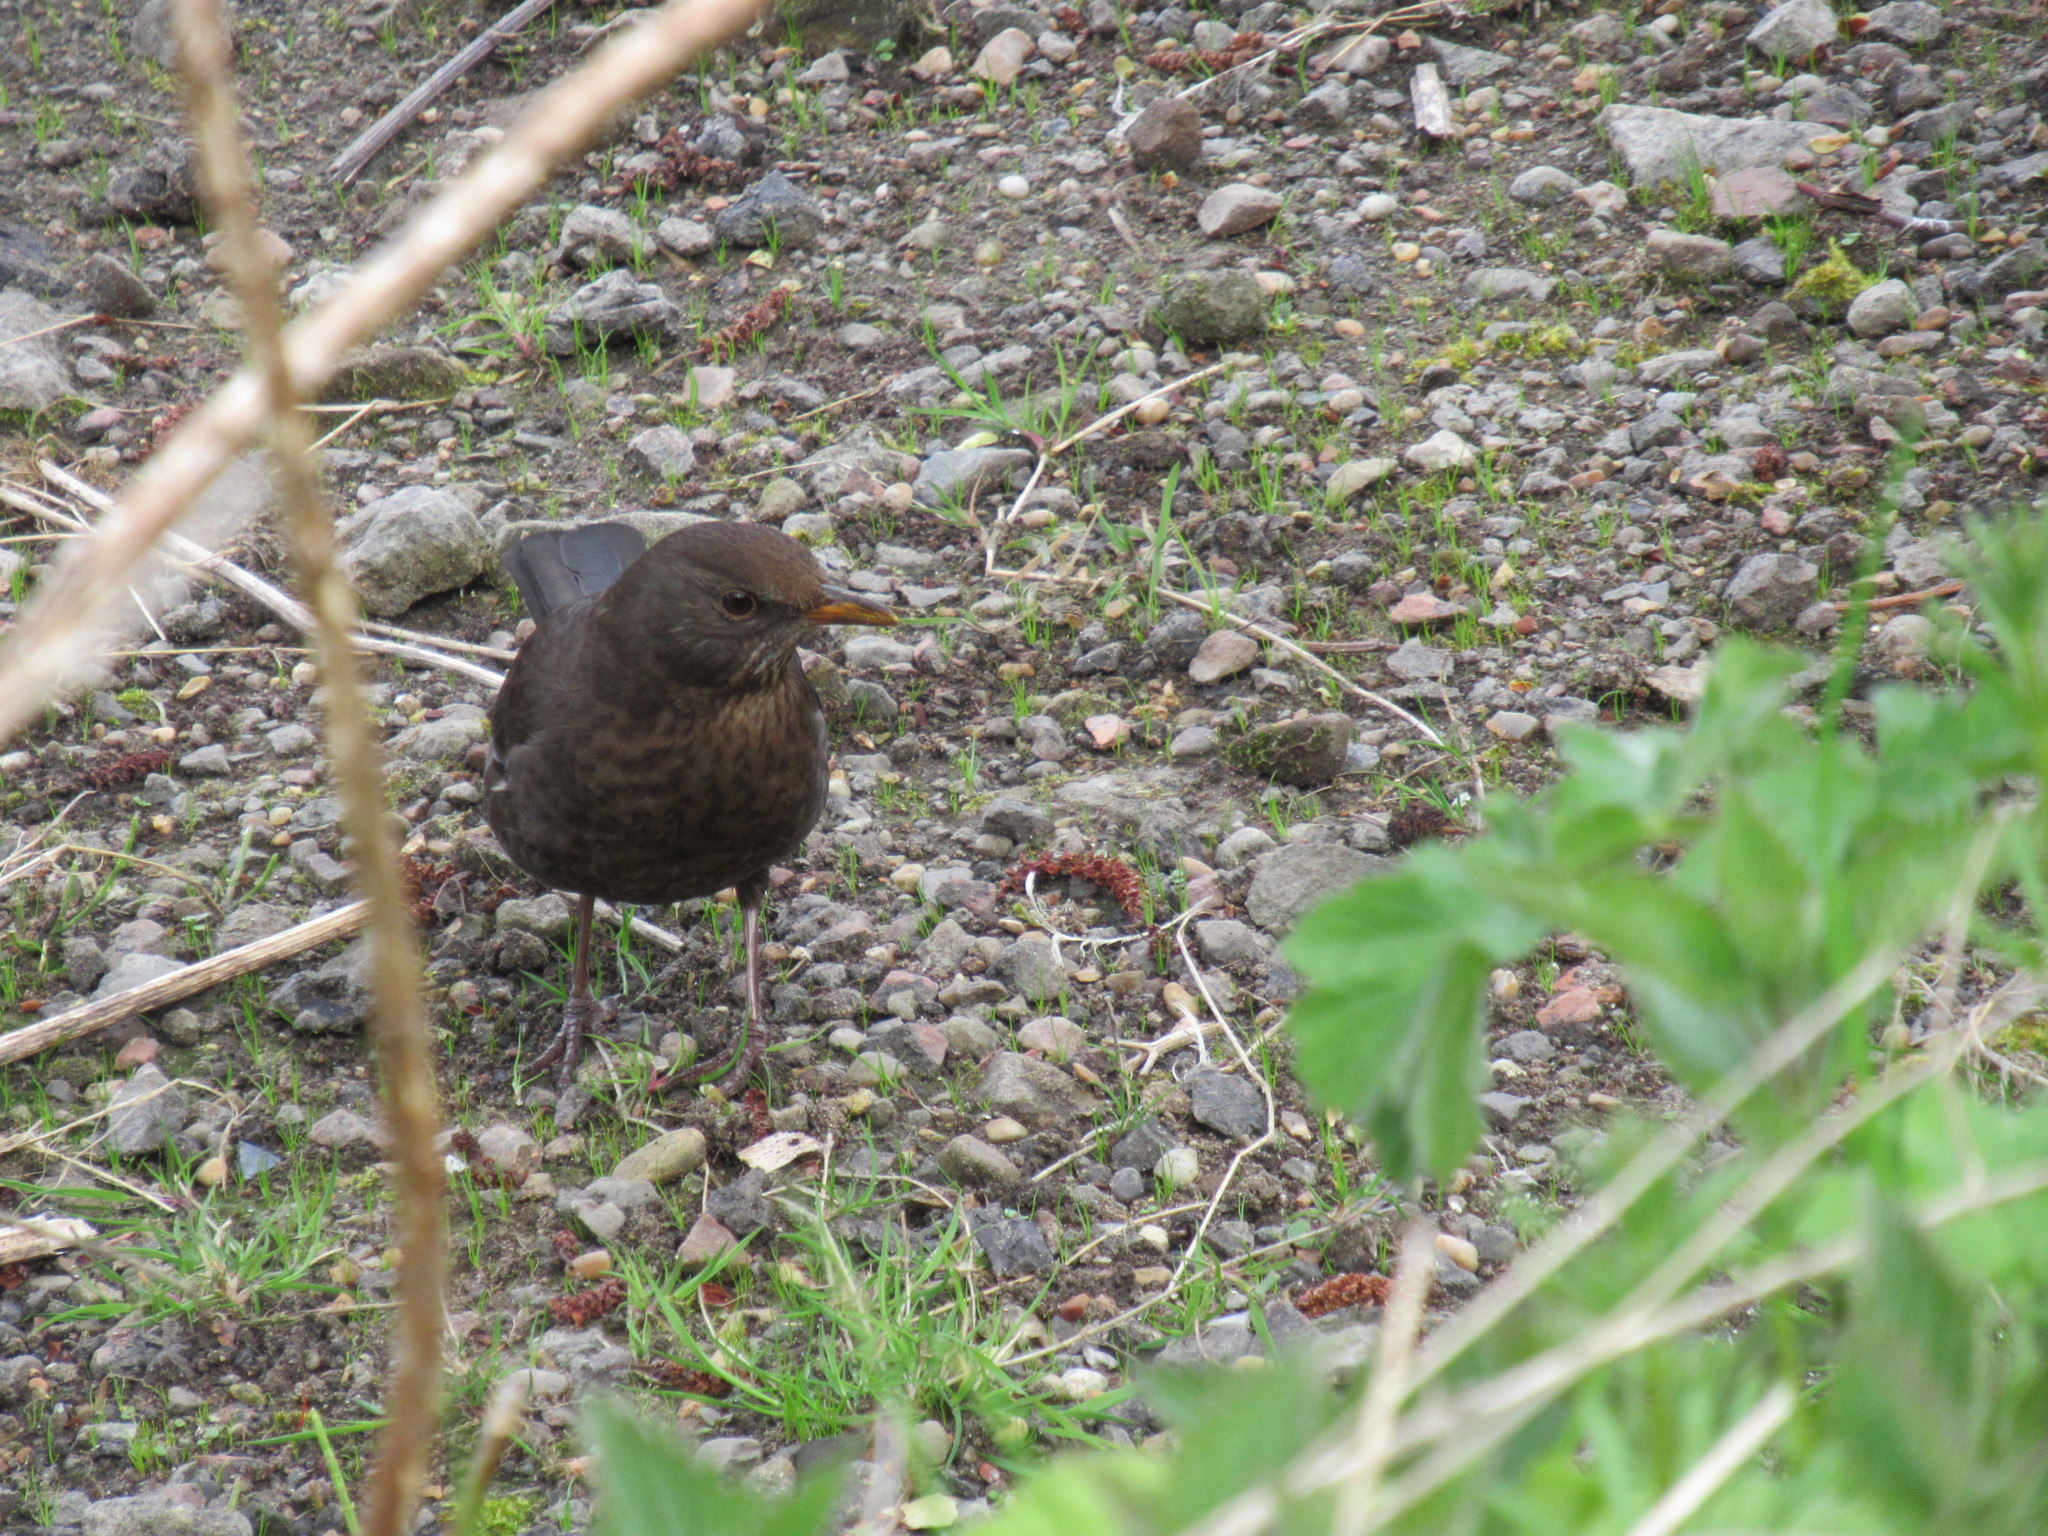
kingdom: Animalia
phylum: Chordata
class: Aves
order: Passeriformes
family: Turdidae
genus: Turdus
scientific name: Turdus merula
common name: Common blackbird
